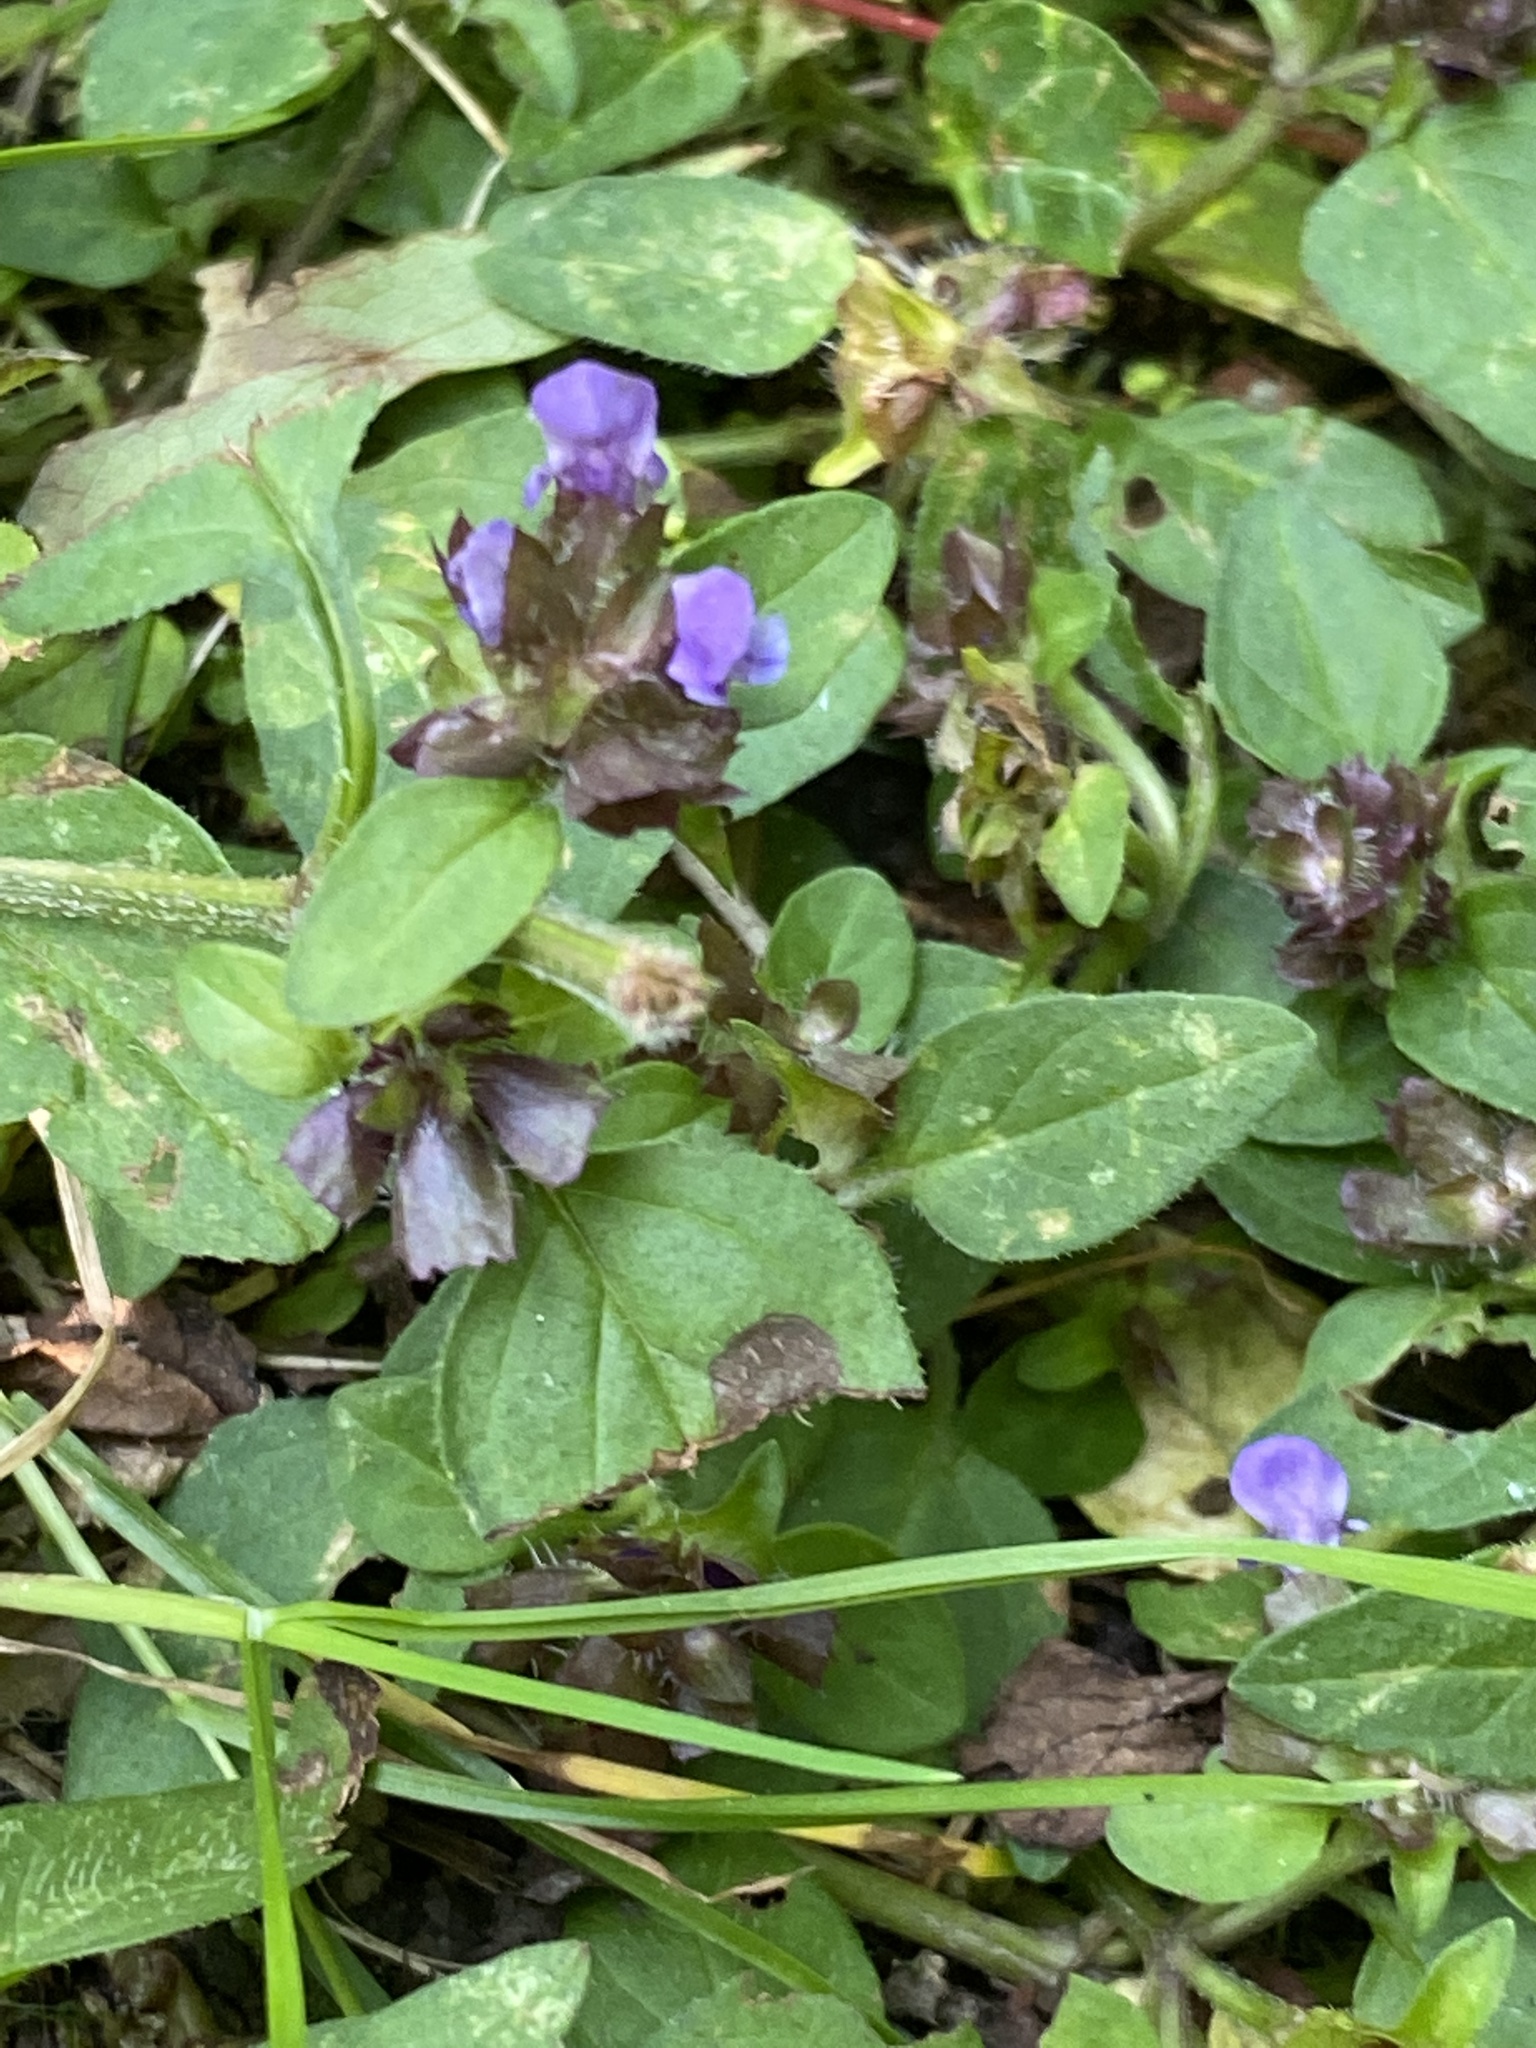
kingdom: Plantae
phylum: Tracheophyta
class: Magnoliopsida
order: Lamiales
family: Lamiaceae
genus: Prunella
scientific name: Prunella vulgaris
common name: Heal-all
